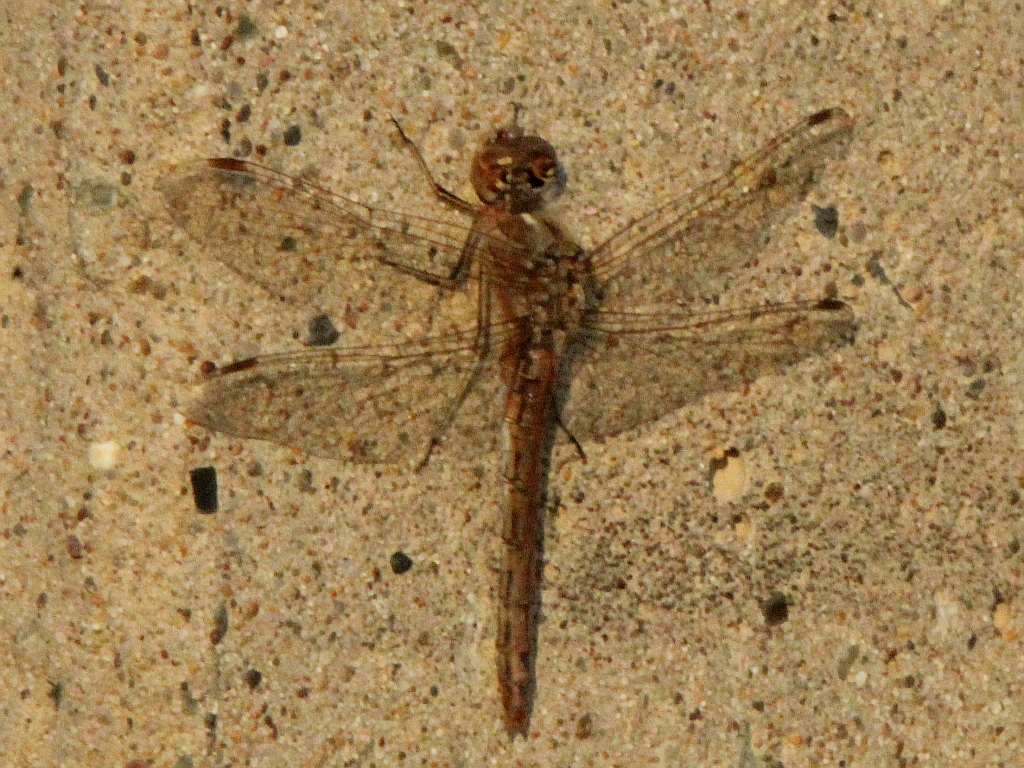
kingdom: Animalia
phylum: Arthropoda
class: Insecta
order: Odonata
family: Libellulidae
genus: Sympetrum
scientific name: Sympetrum vulgatum
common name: Vagrant darter
